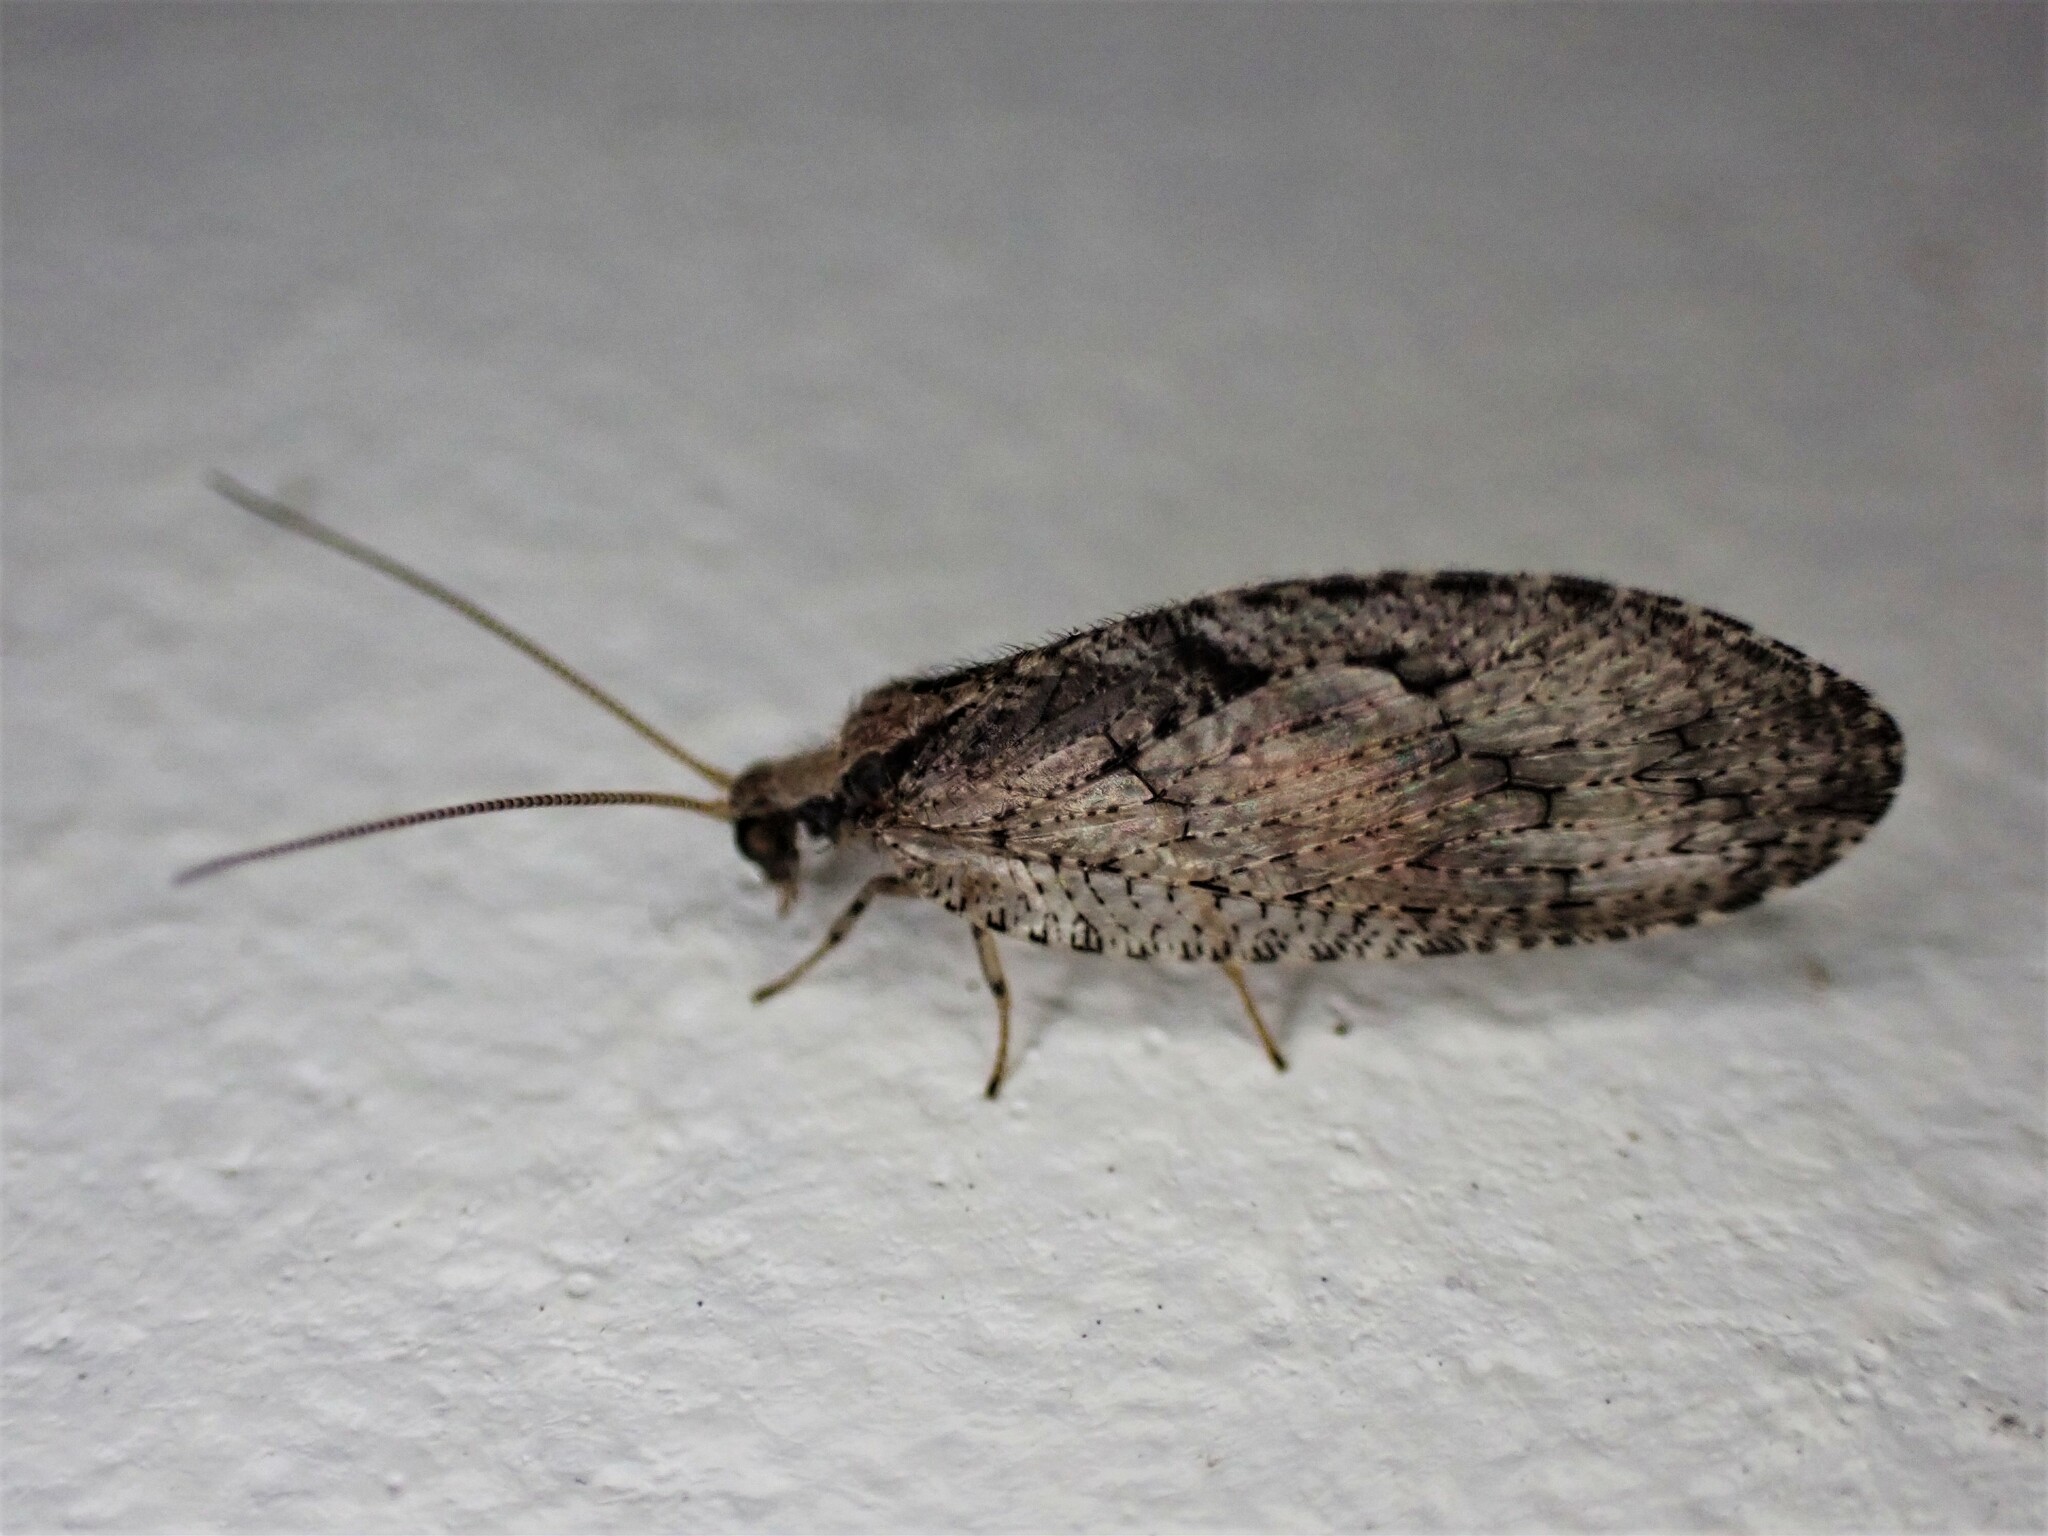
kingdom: Animalia
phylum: Arthropoda
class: Insecta
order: Neuroptera
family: Hemerobiidae
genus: Wesmaelius
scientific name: Wesmaelius subnebulosus
